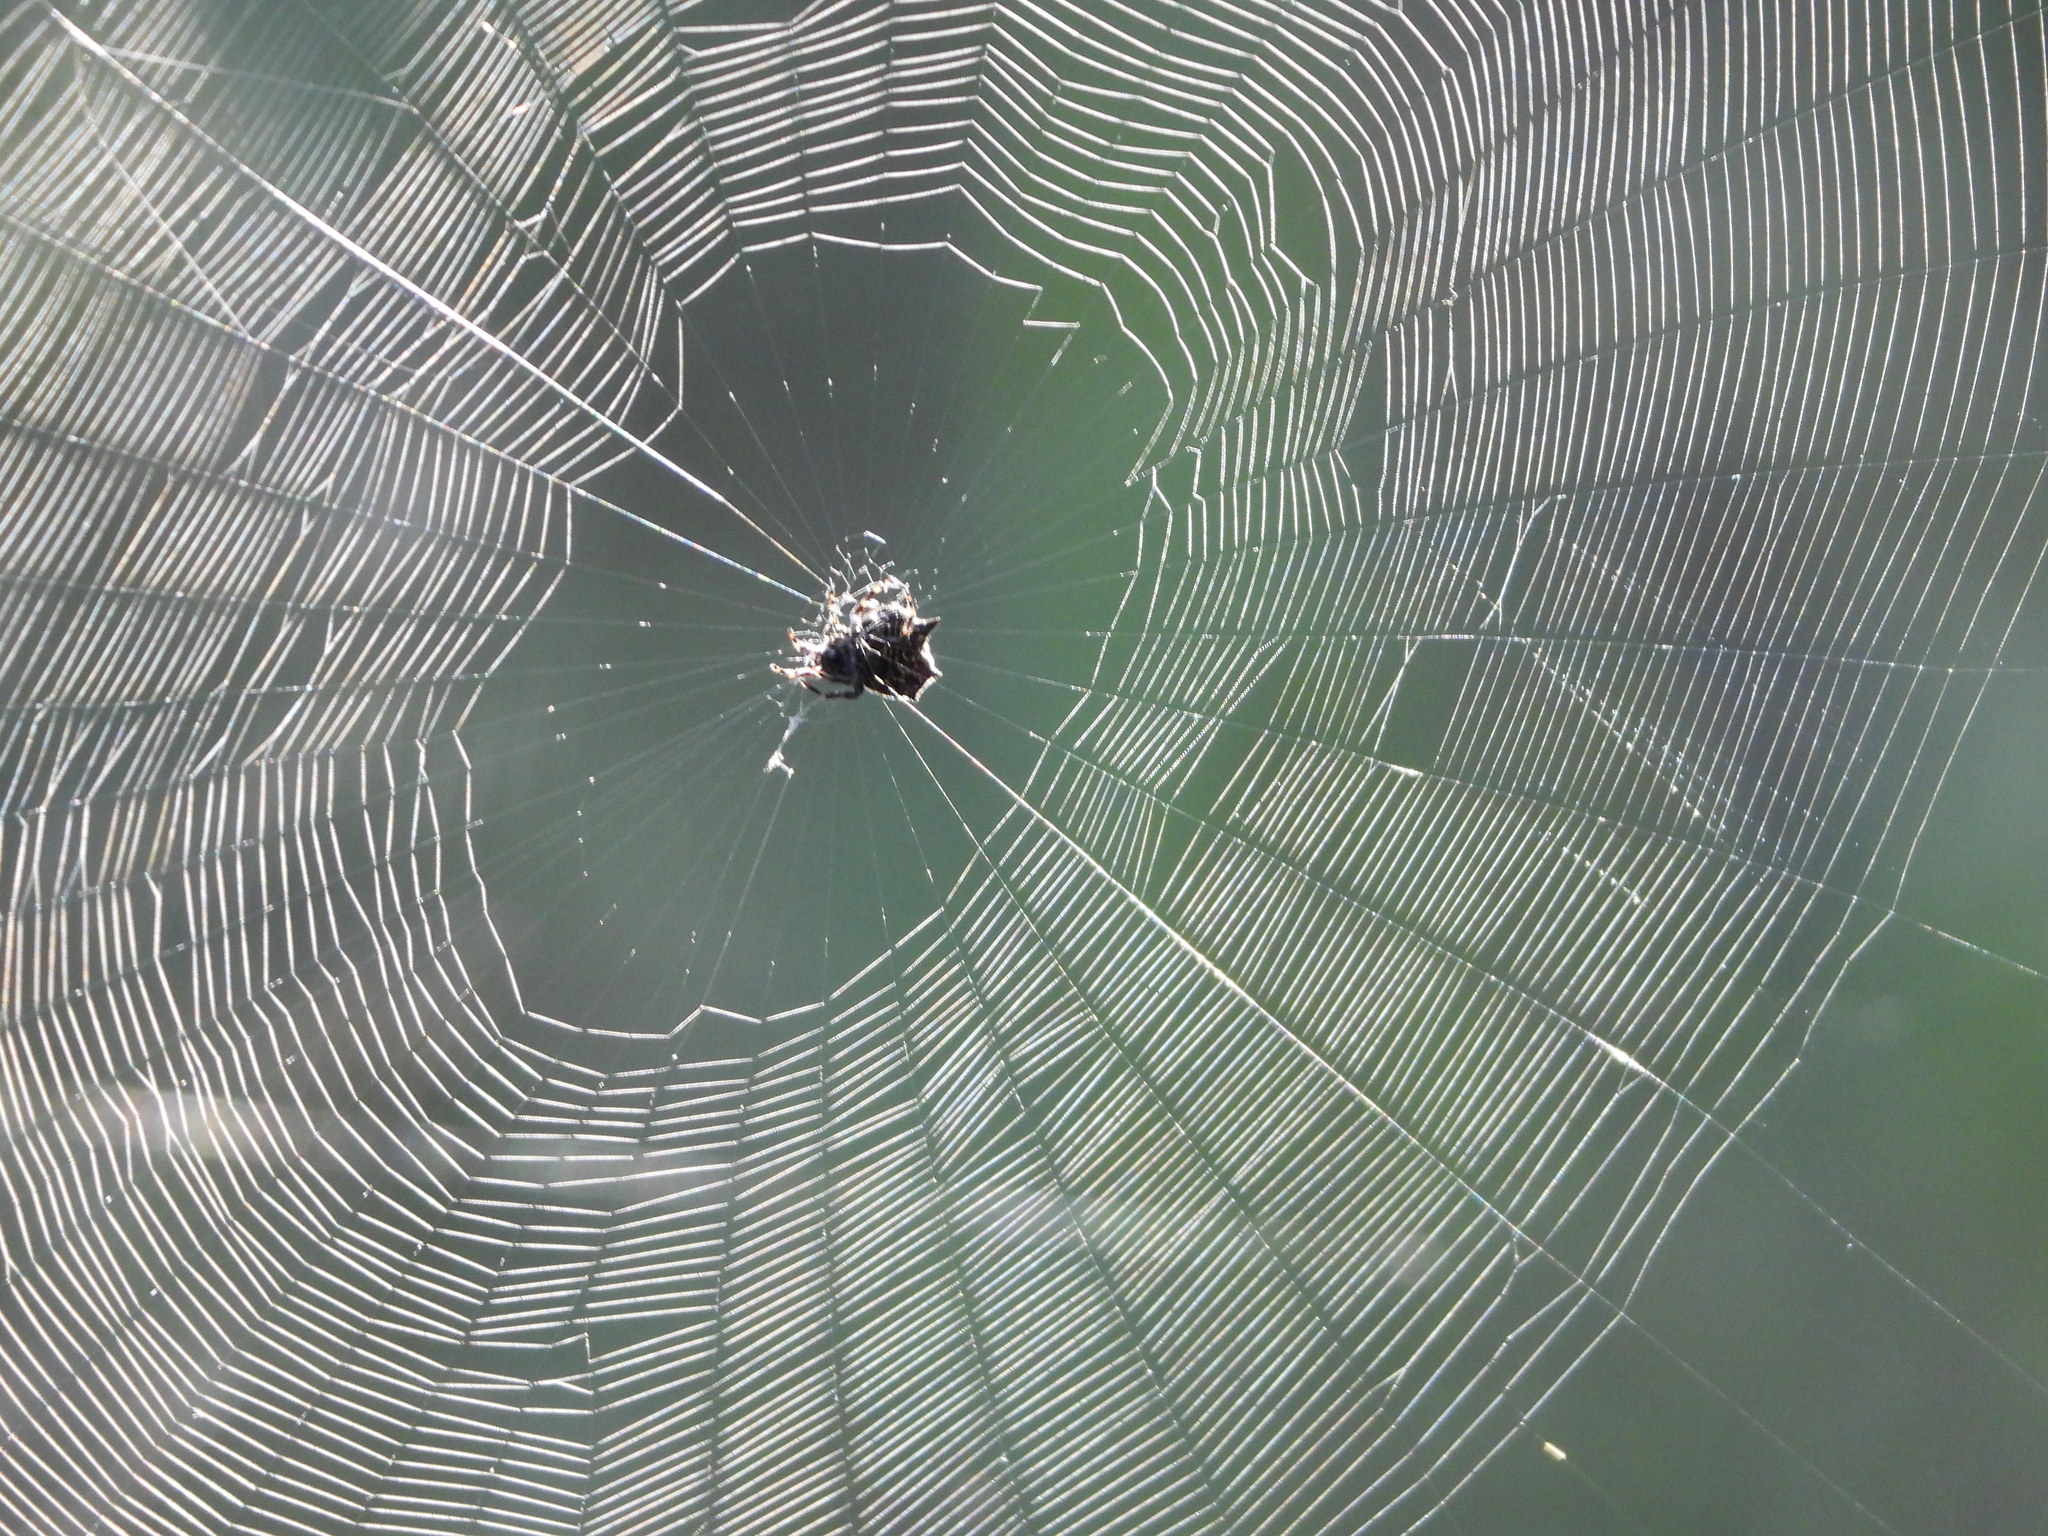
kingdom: Animalia
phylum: Arthropoda
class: Arachnida
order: Araneae
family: Araneidae
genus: Gasteracantha
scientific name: Gasteracantha cancriformis
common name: Orb weavers
